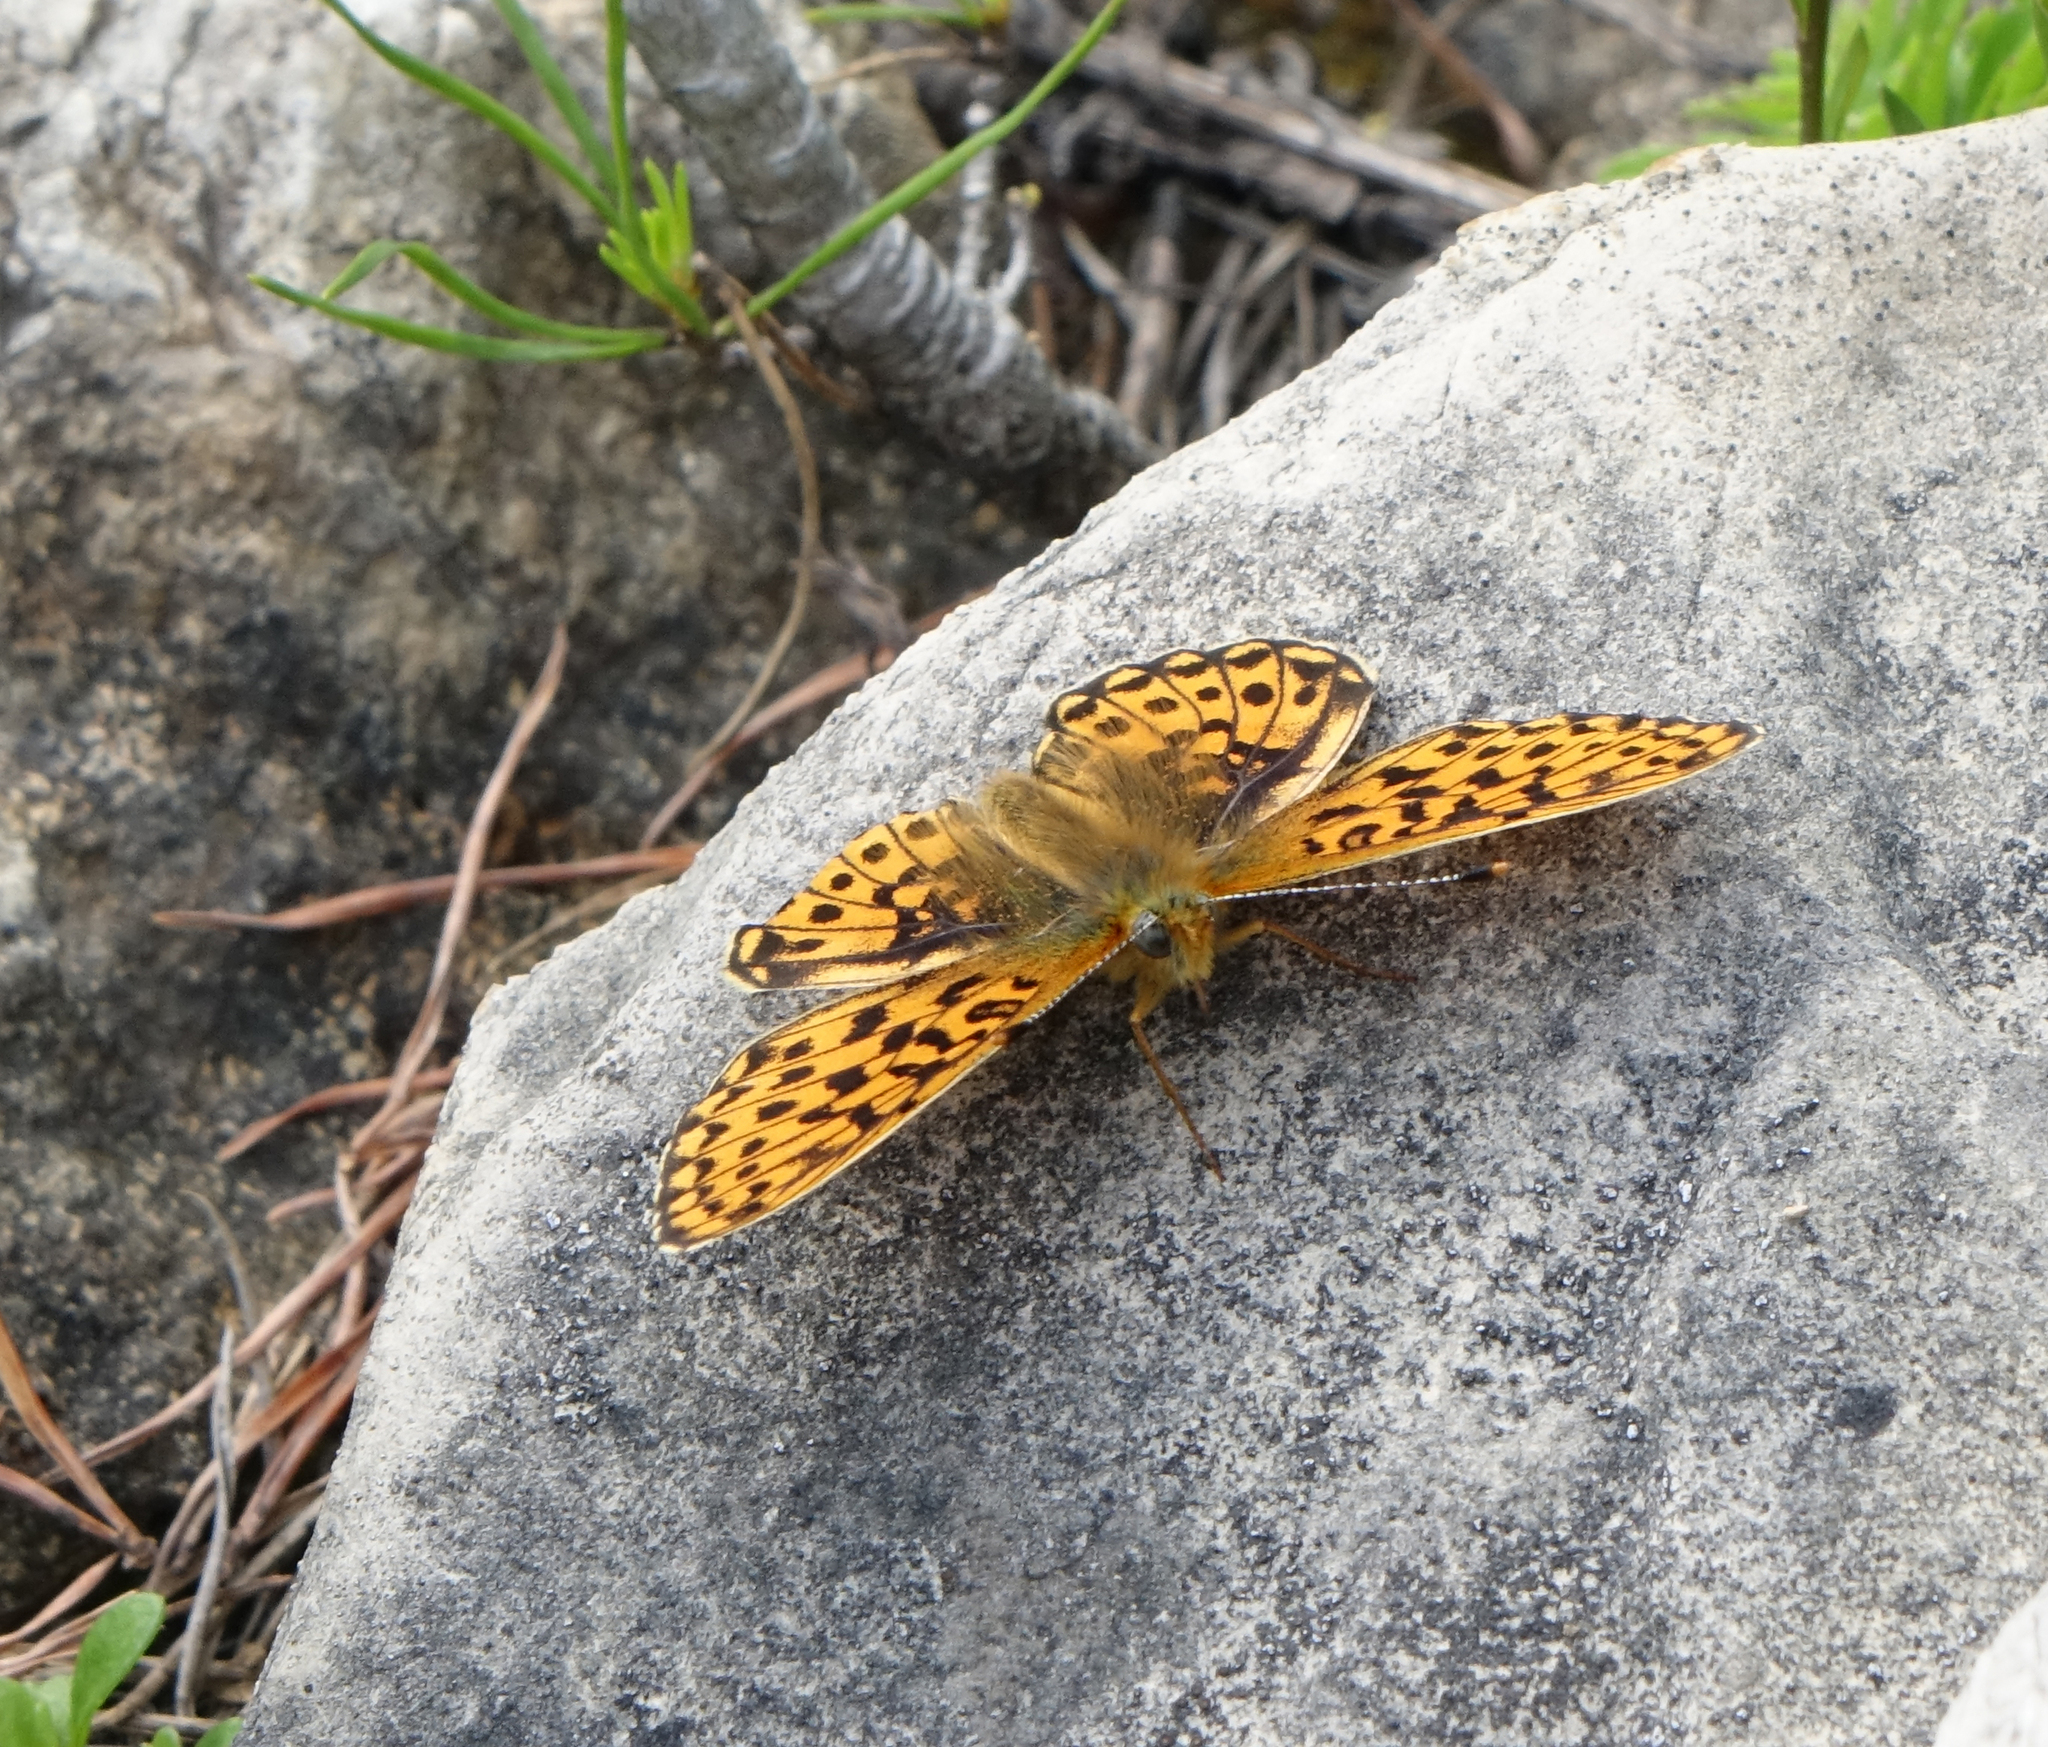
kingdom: Animalia
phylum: Arthropoda
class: Insecta
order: Lepidoptera
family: Nymphalidae
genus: Clossiana
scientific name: Clossiana euphrosyne
